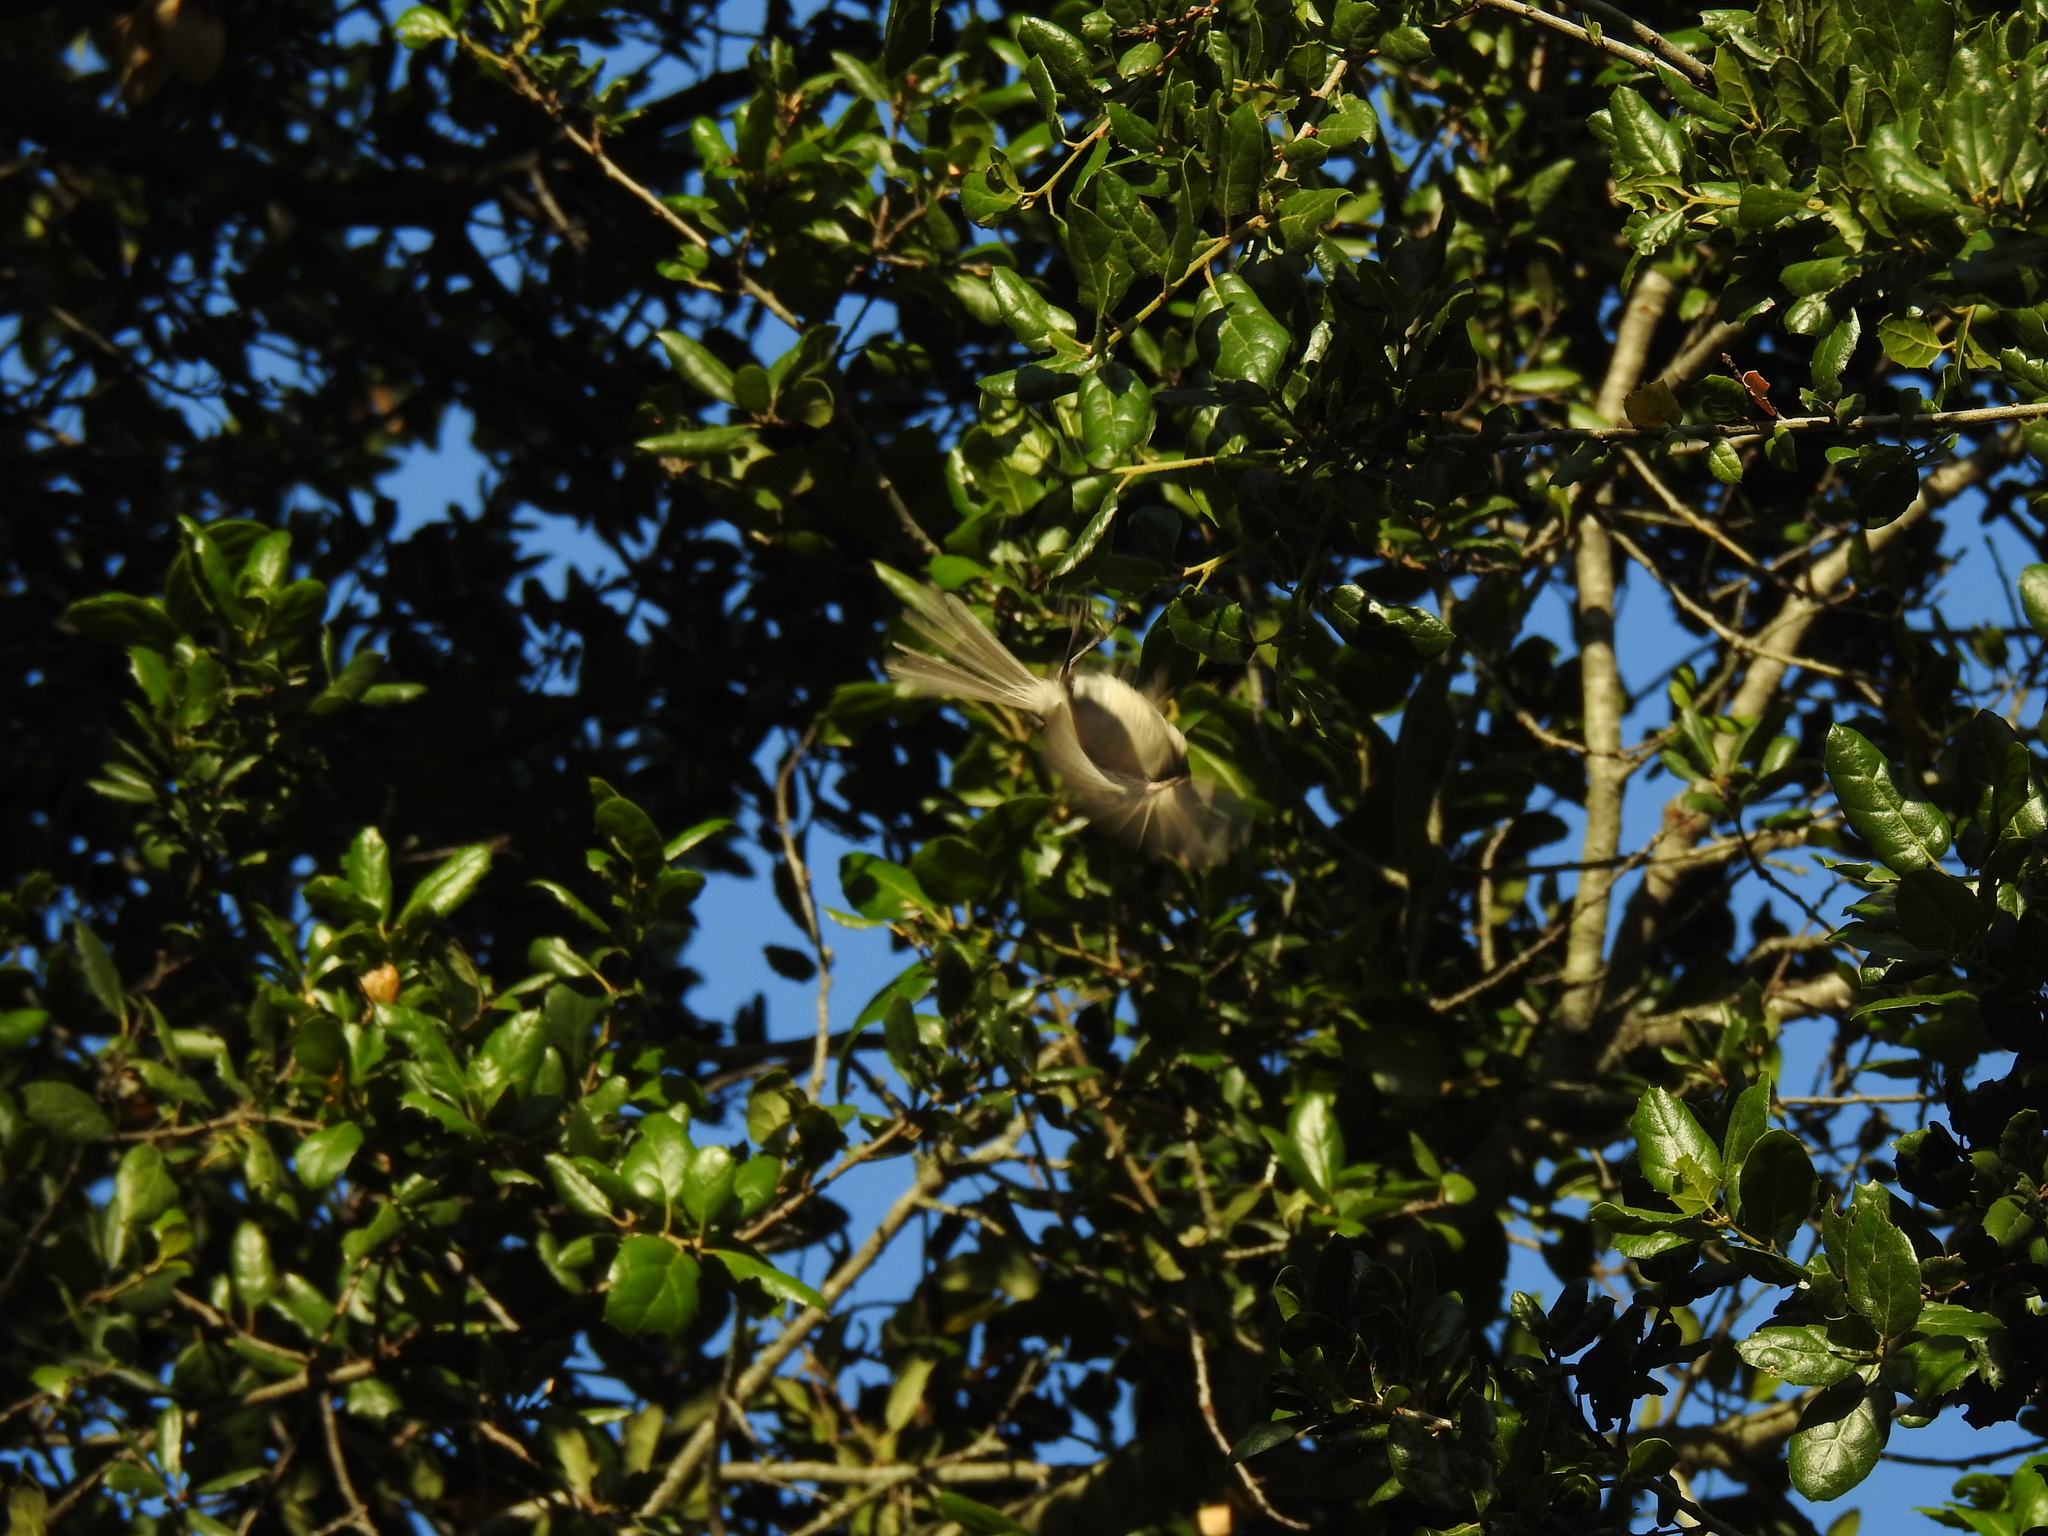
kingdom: Animalia
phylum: Chordata
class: Aves
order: Passeriformes
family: Vireonidae
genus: Vireo
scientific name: Vireo huttoni
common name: Hutton's vireo
